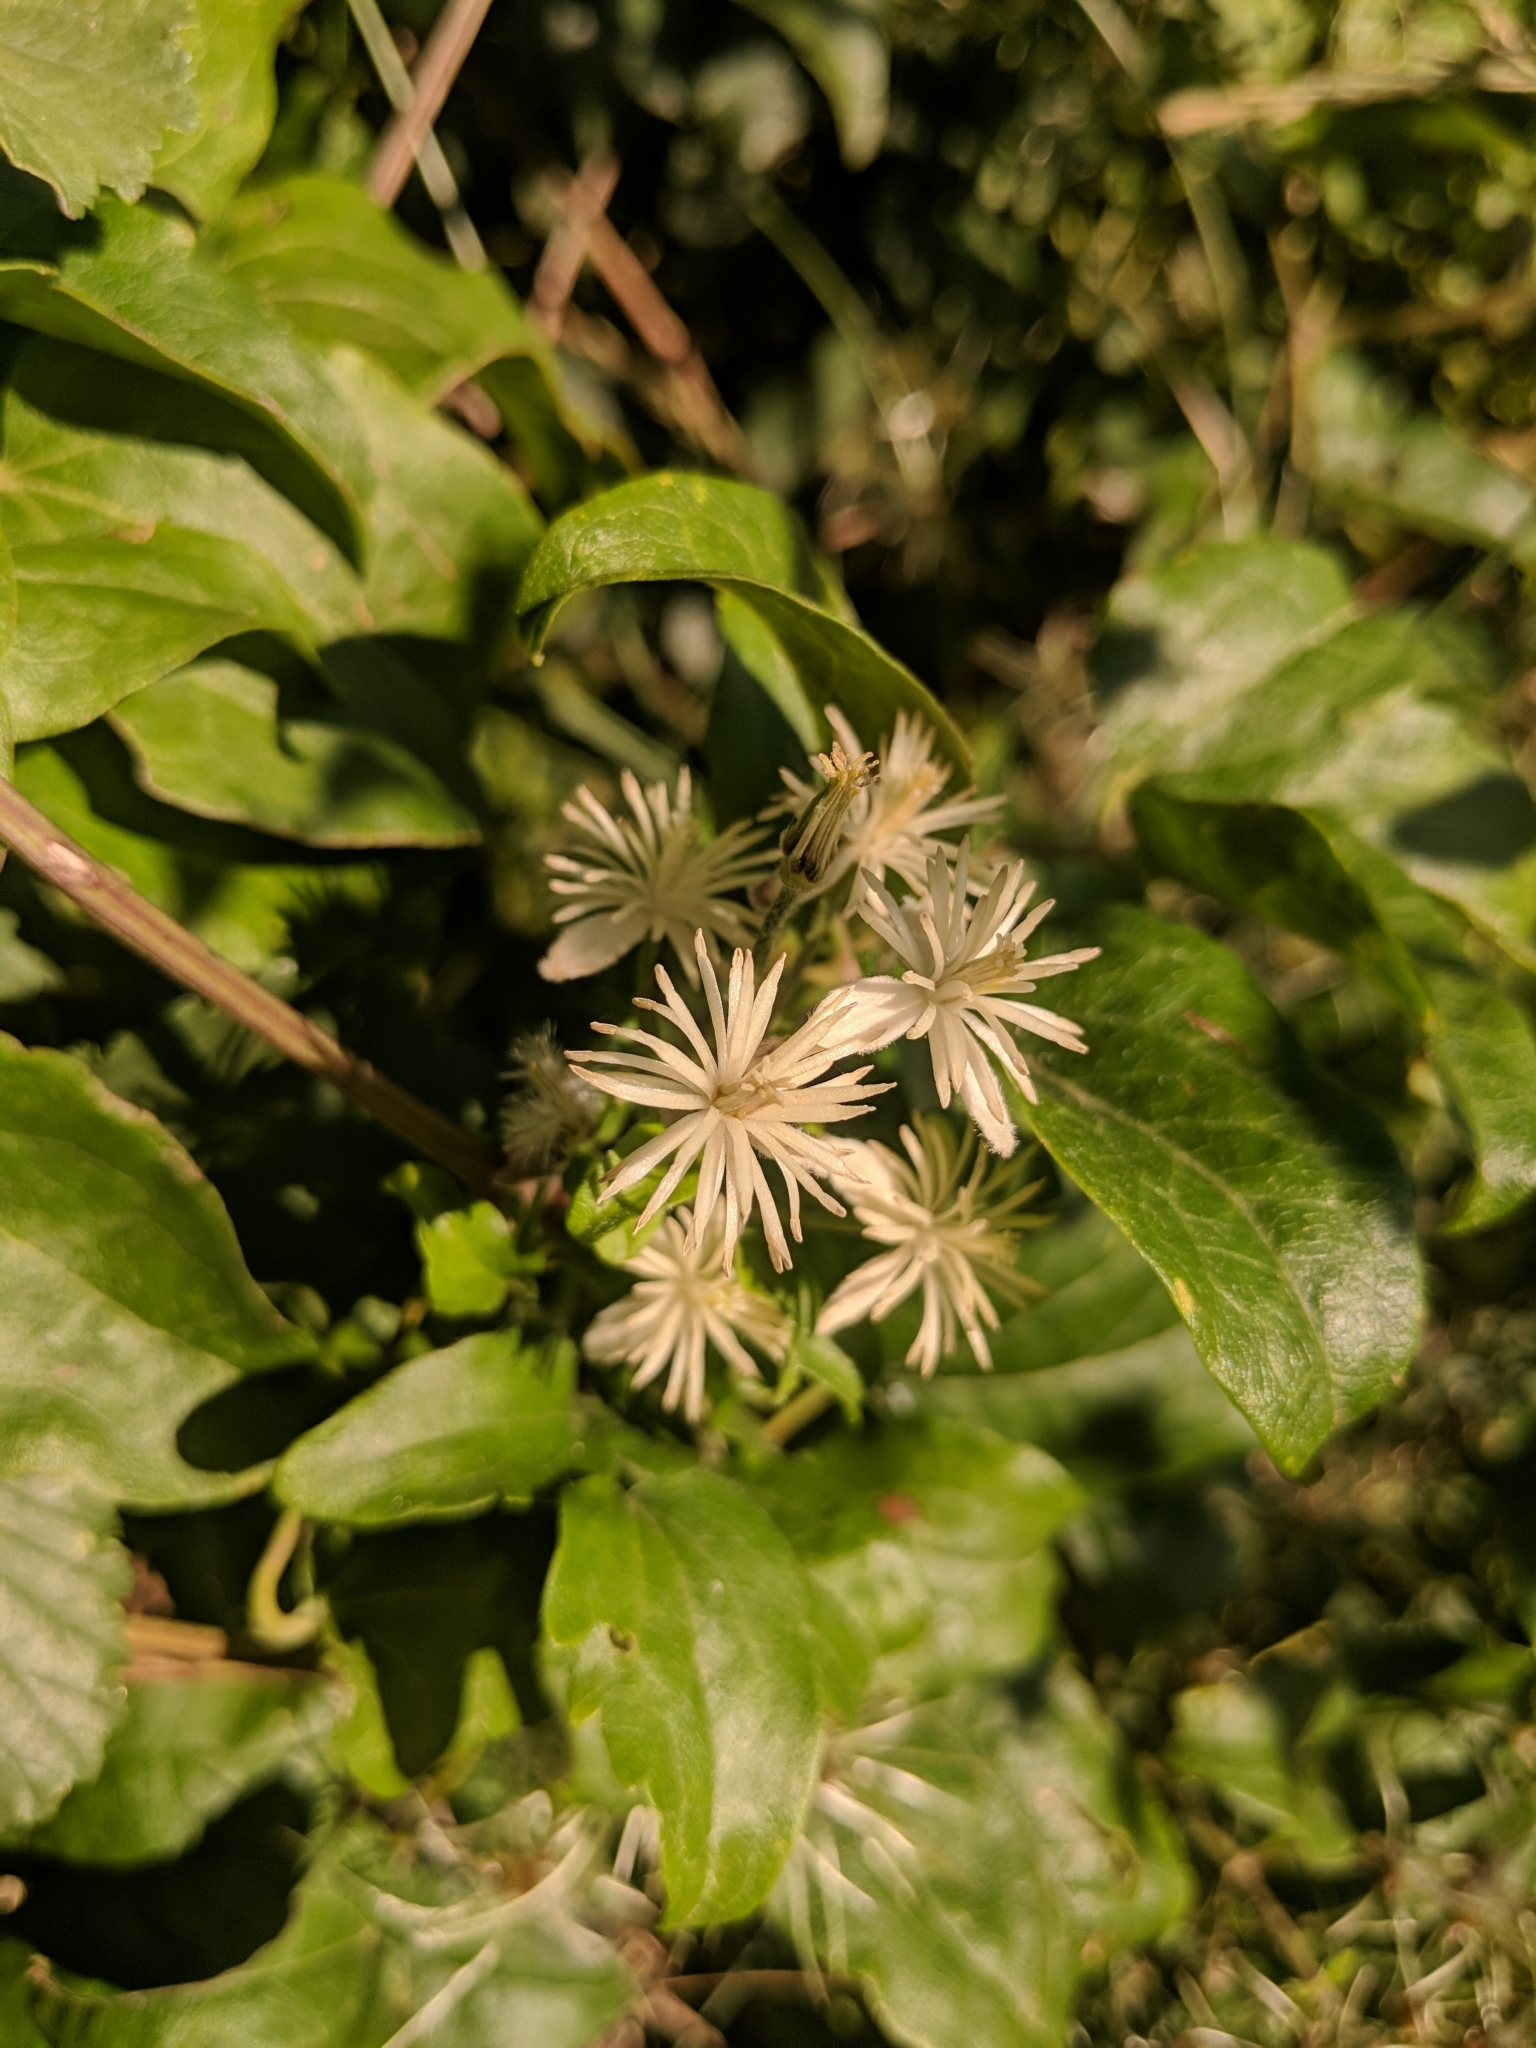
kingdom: Plantae
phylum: Tracheophyta
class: Magnoliopsida
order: Ranunculales
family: Ranunculaceae
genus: Clematis
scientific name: Clematis vitalba
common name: Evergreen clematis
